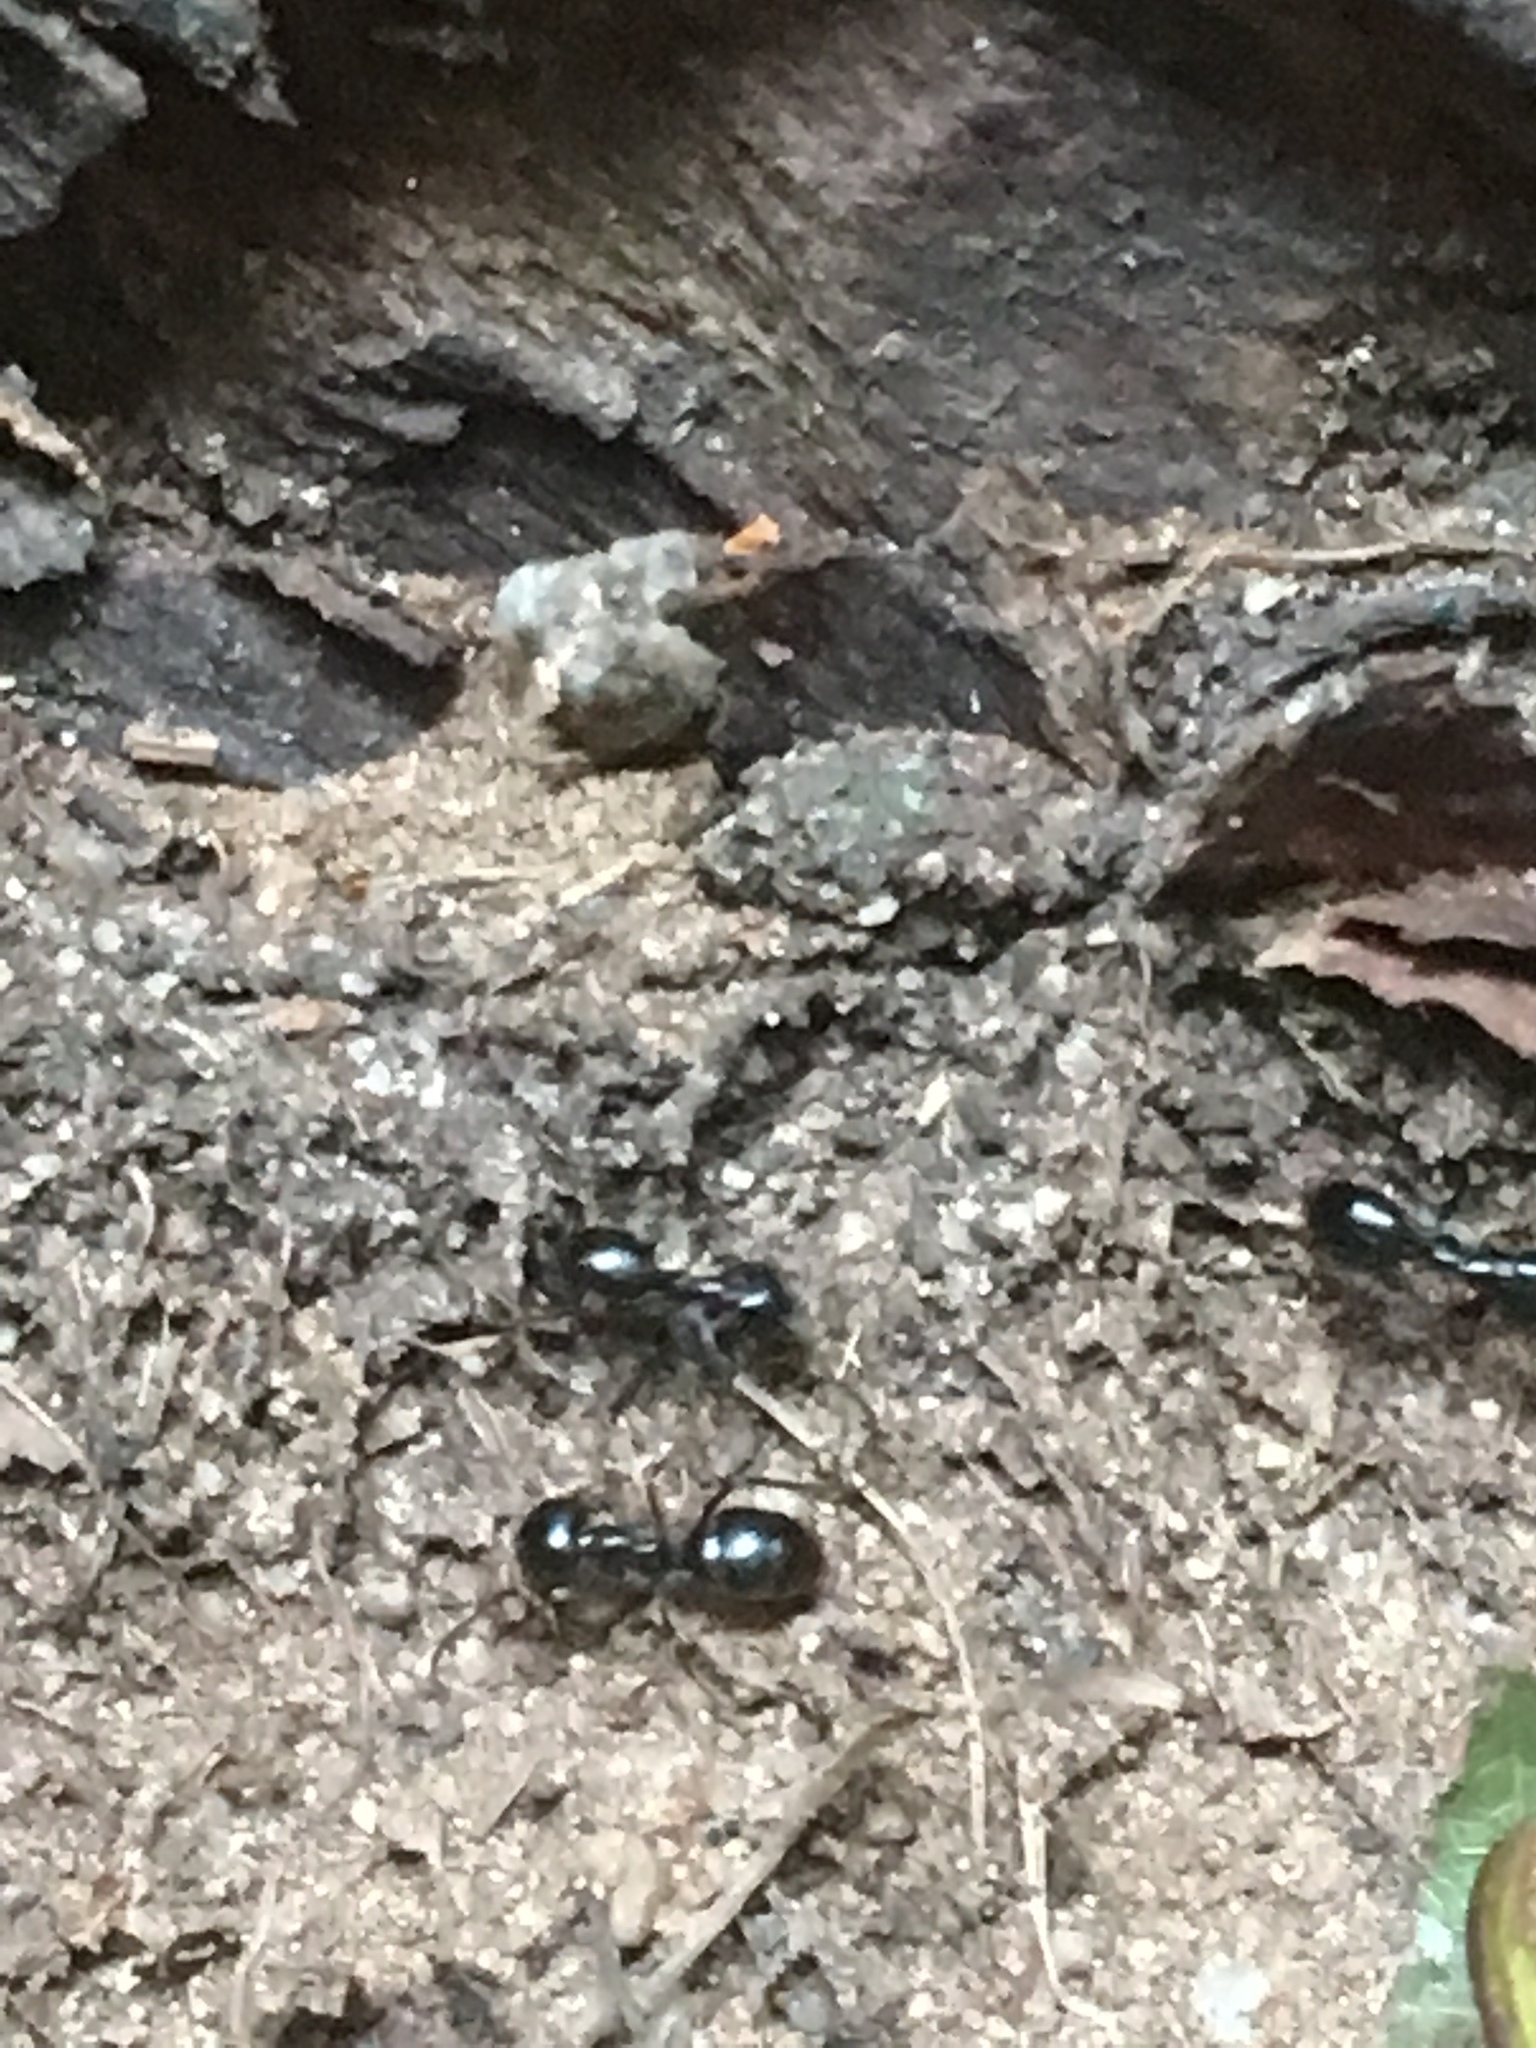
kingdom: Animalia
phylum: Arthropoda
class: Insecta
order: Hymenoptera
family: Formicidae
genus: Lasius
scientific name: Lasius fuliginosus
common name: Jet ant
